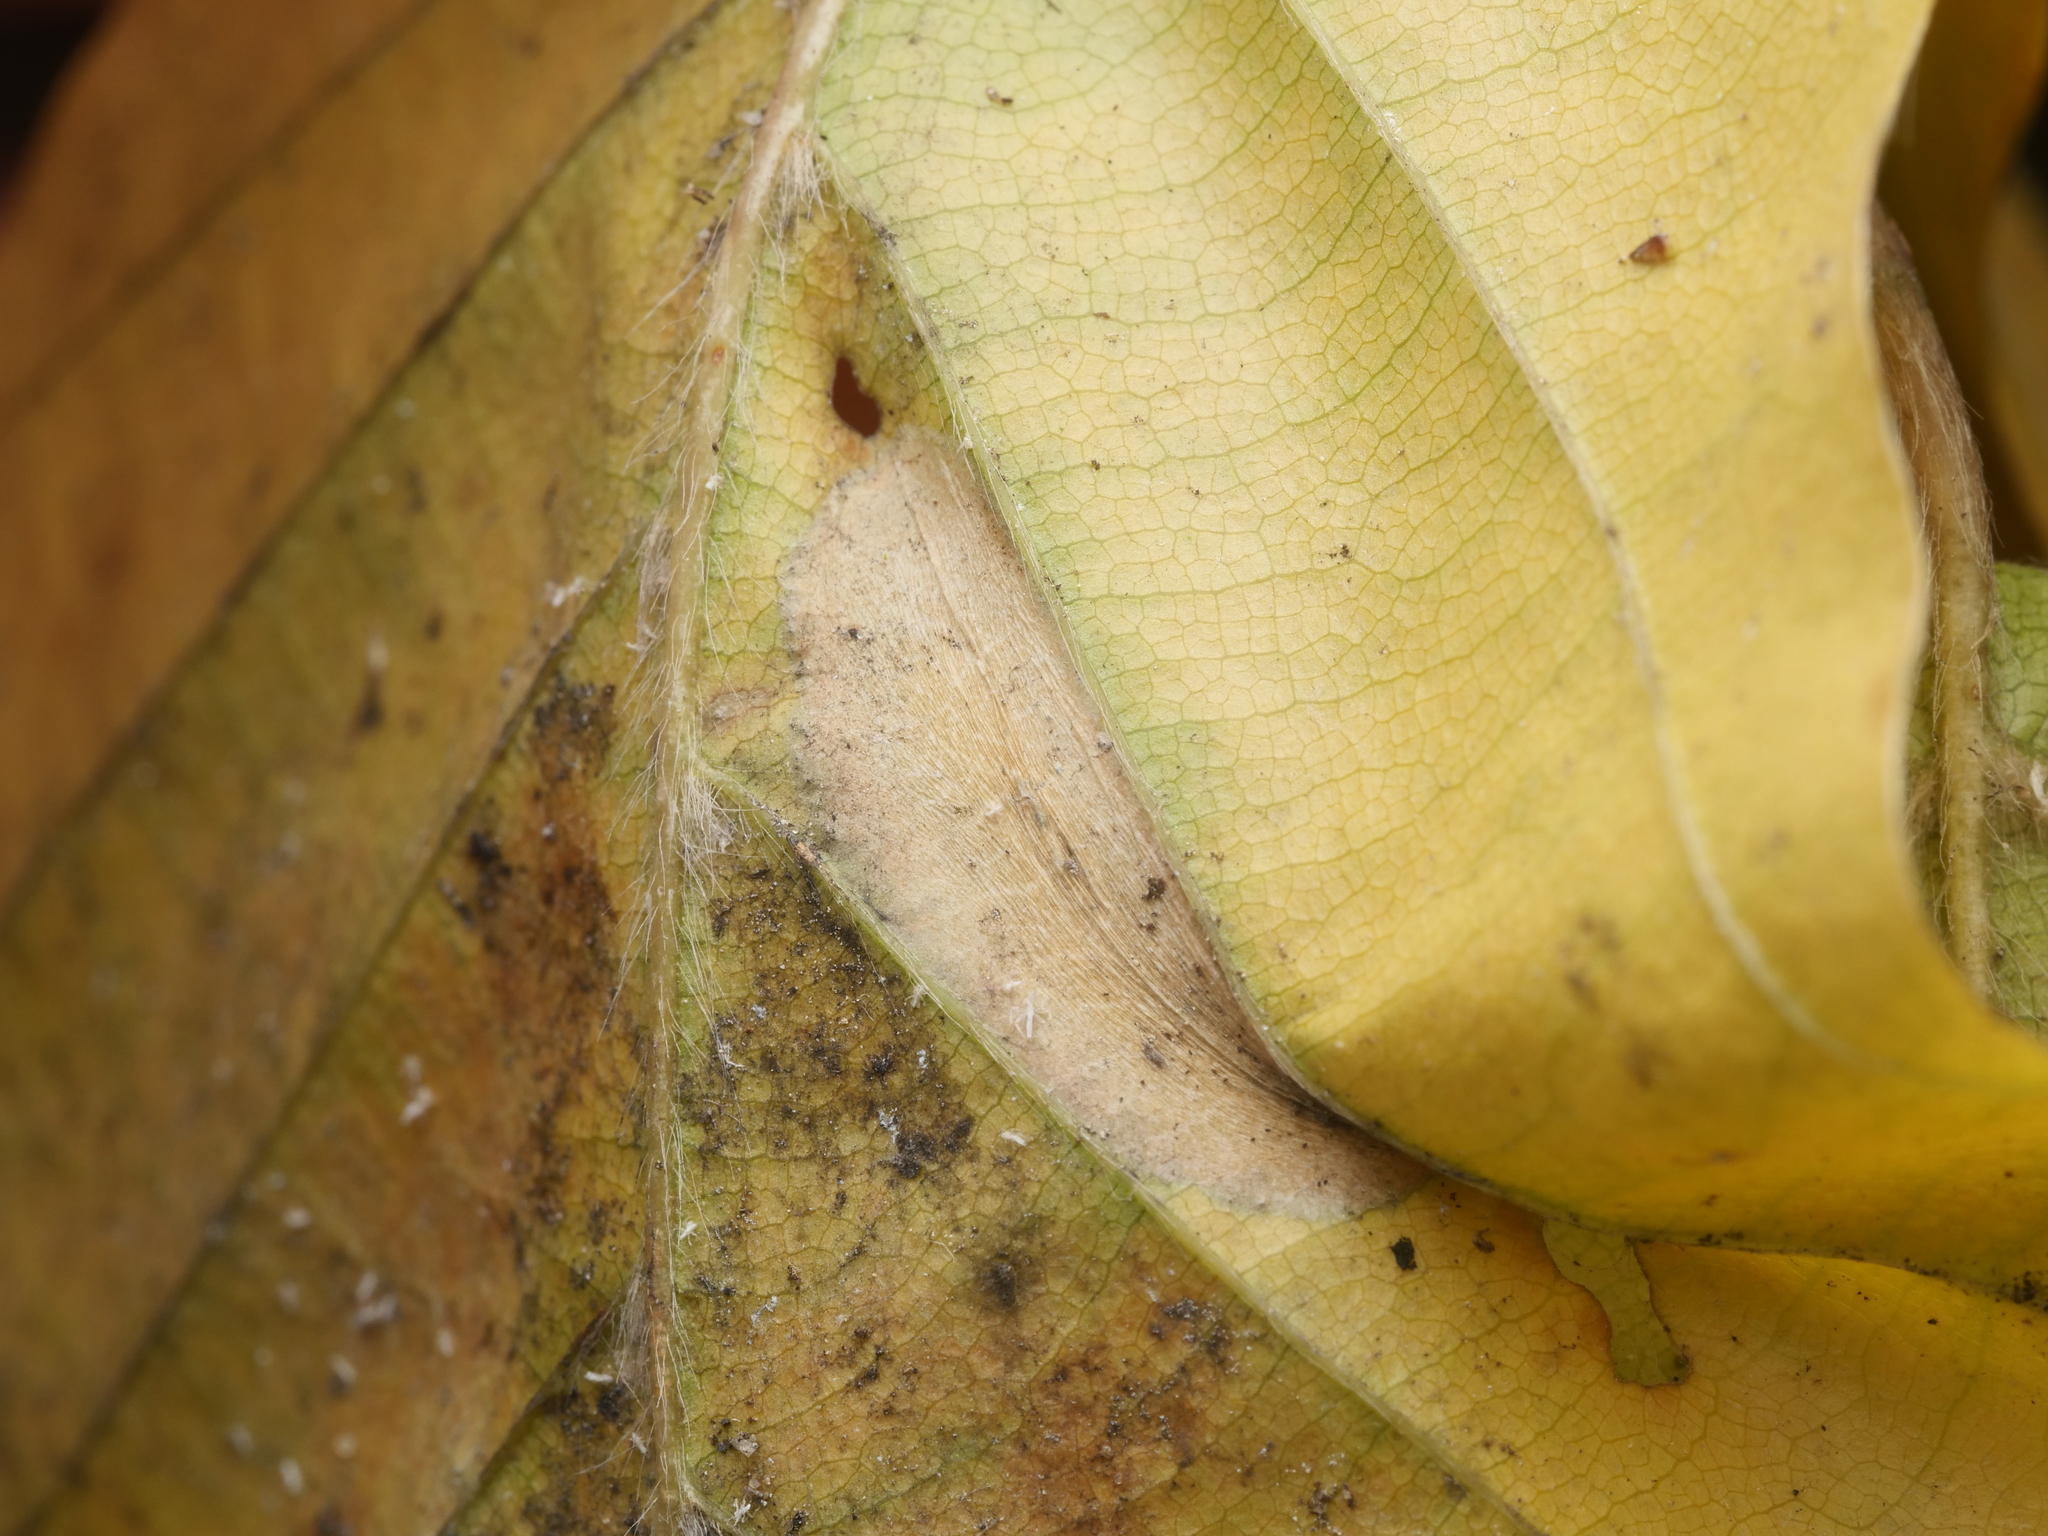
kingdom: Animalia
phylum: Arthropoda
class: Insecta
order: Lepidoptera
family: Gracillariidae
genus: Phyllonorycter
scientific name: Phyllonorycter maestingella
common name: Beech midget
